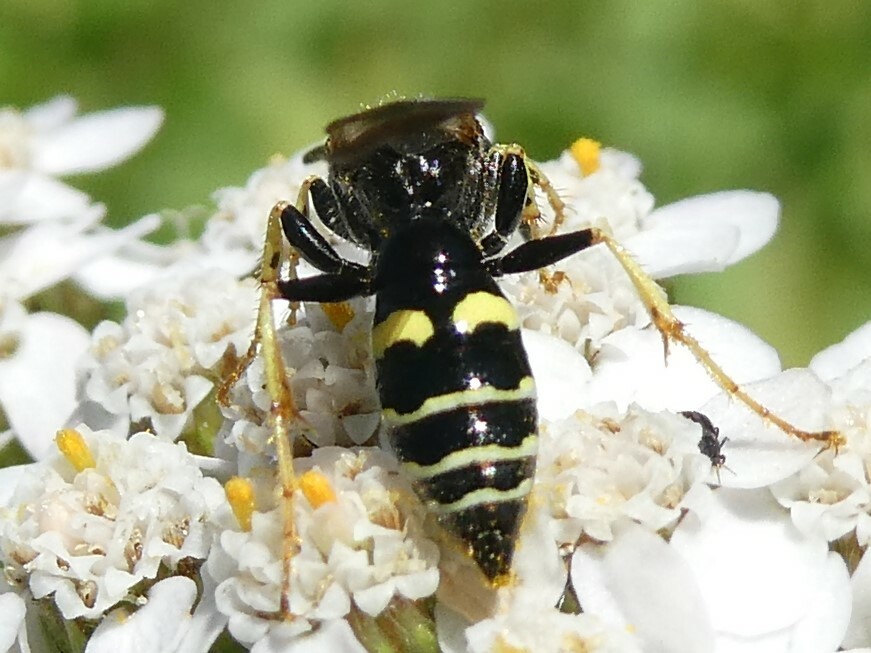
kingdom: Animalia
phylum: Arthropoda
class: Insecta
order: Hymenoptera
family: Crabronidae
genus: Philanthus
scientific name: Philanthus bilunatus
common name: Two moons beewolf
